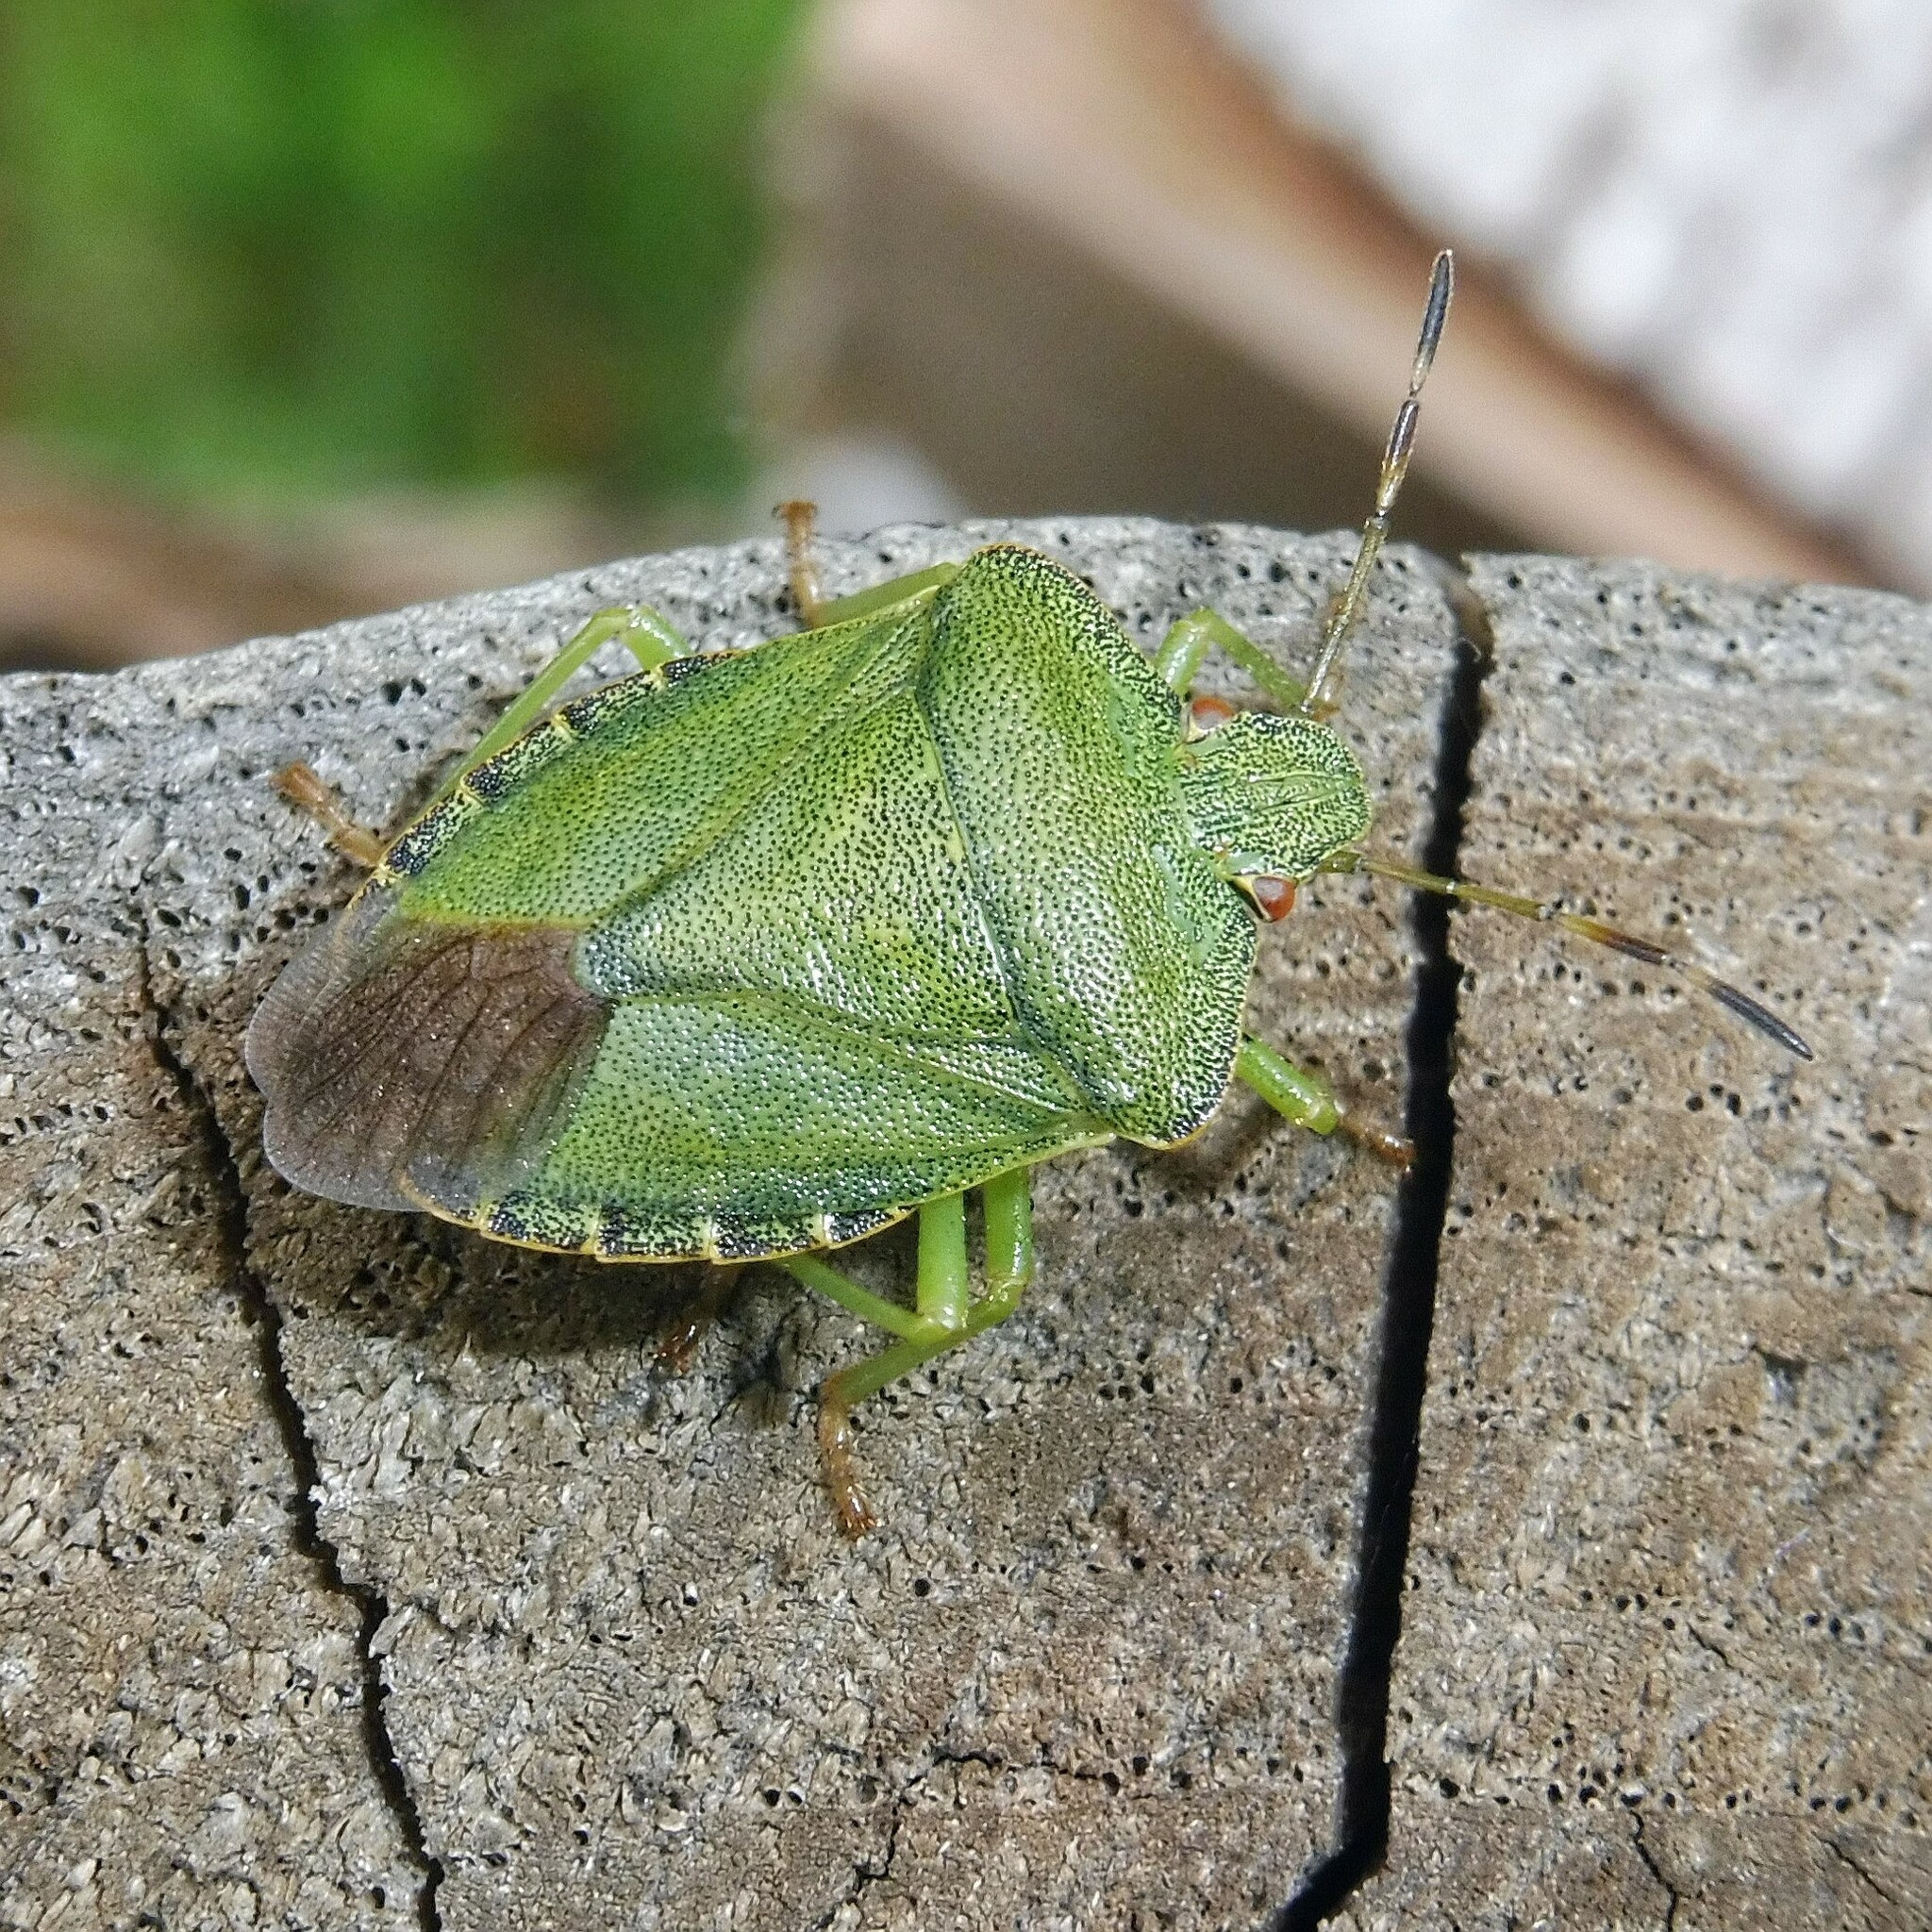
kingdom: Animalia
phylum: Arthropoda
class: Insecta
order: Hemiptera
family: Pentatomidae
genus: Palomena
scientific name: Palomena prasina
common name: Green shieldbug
